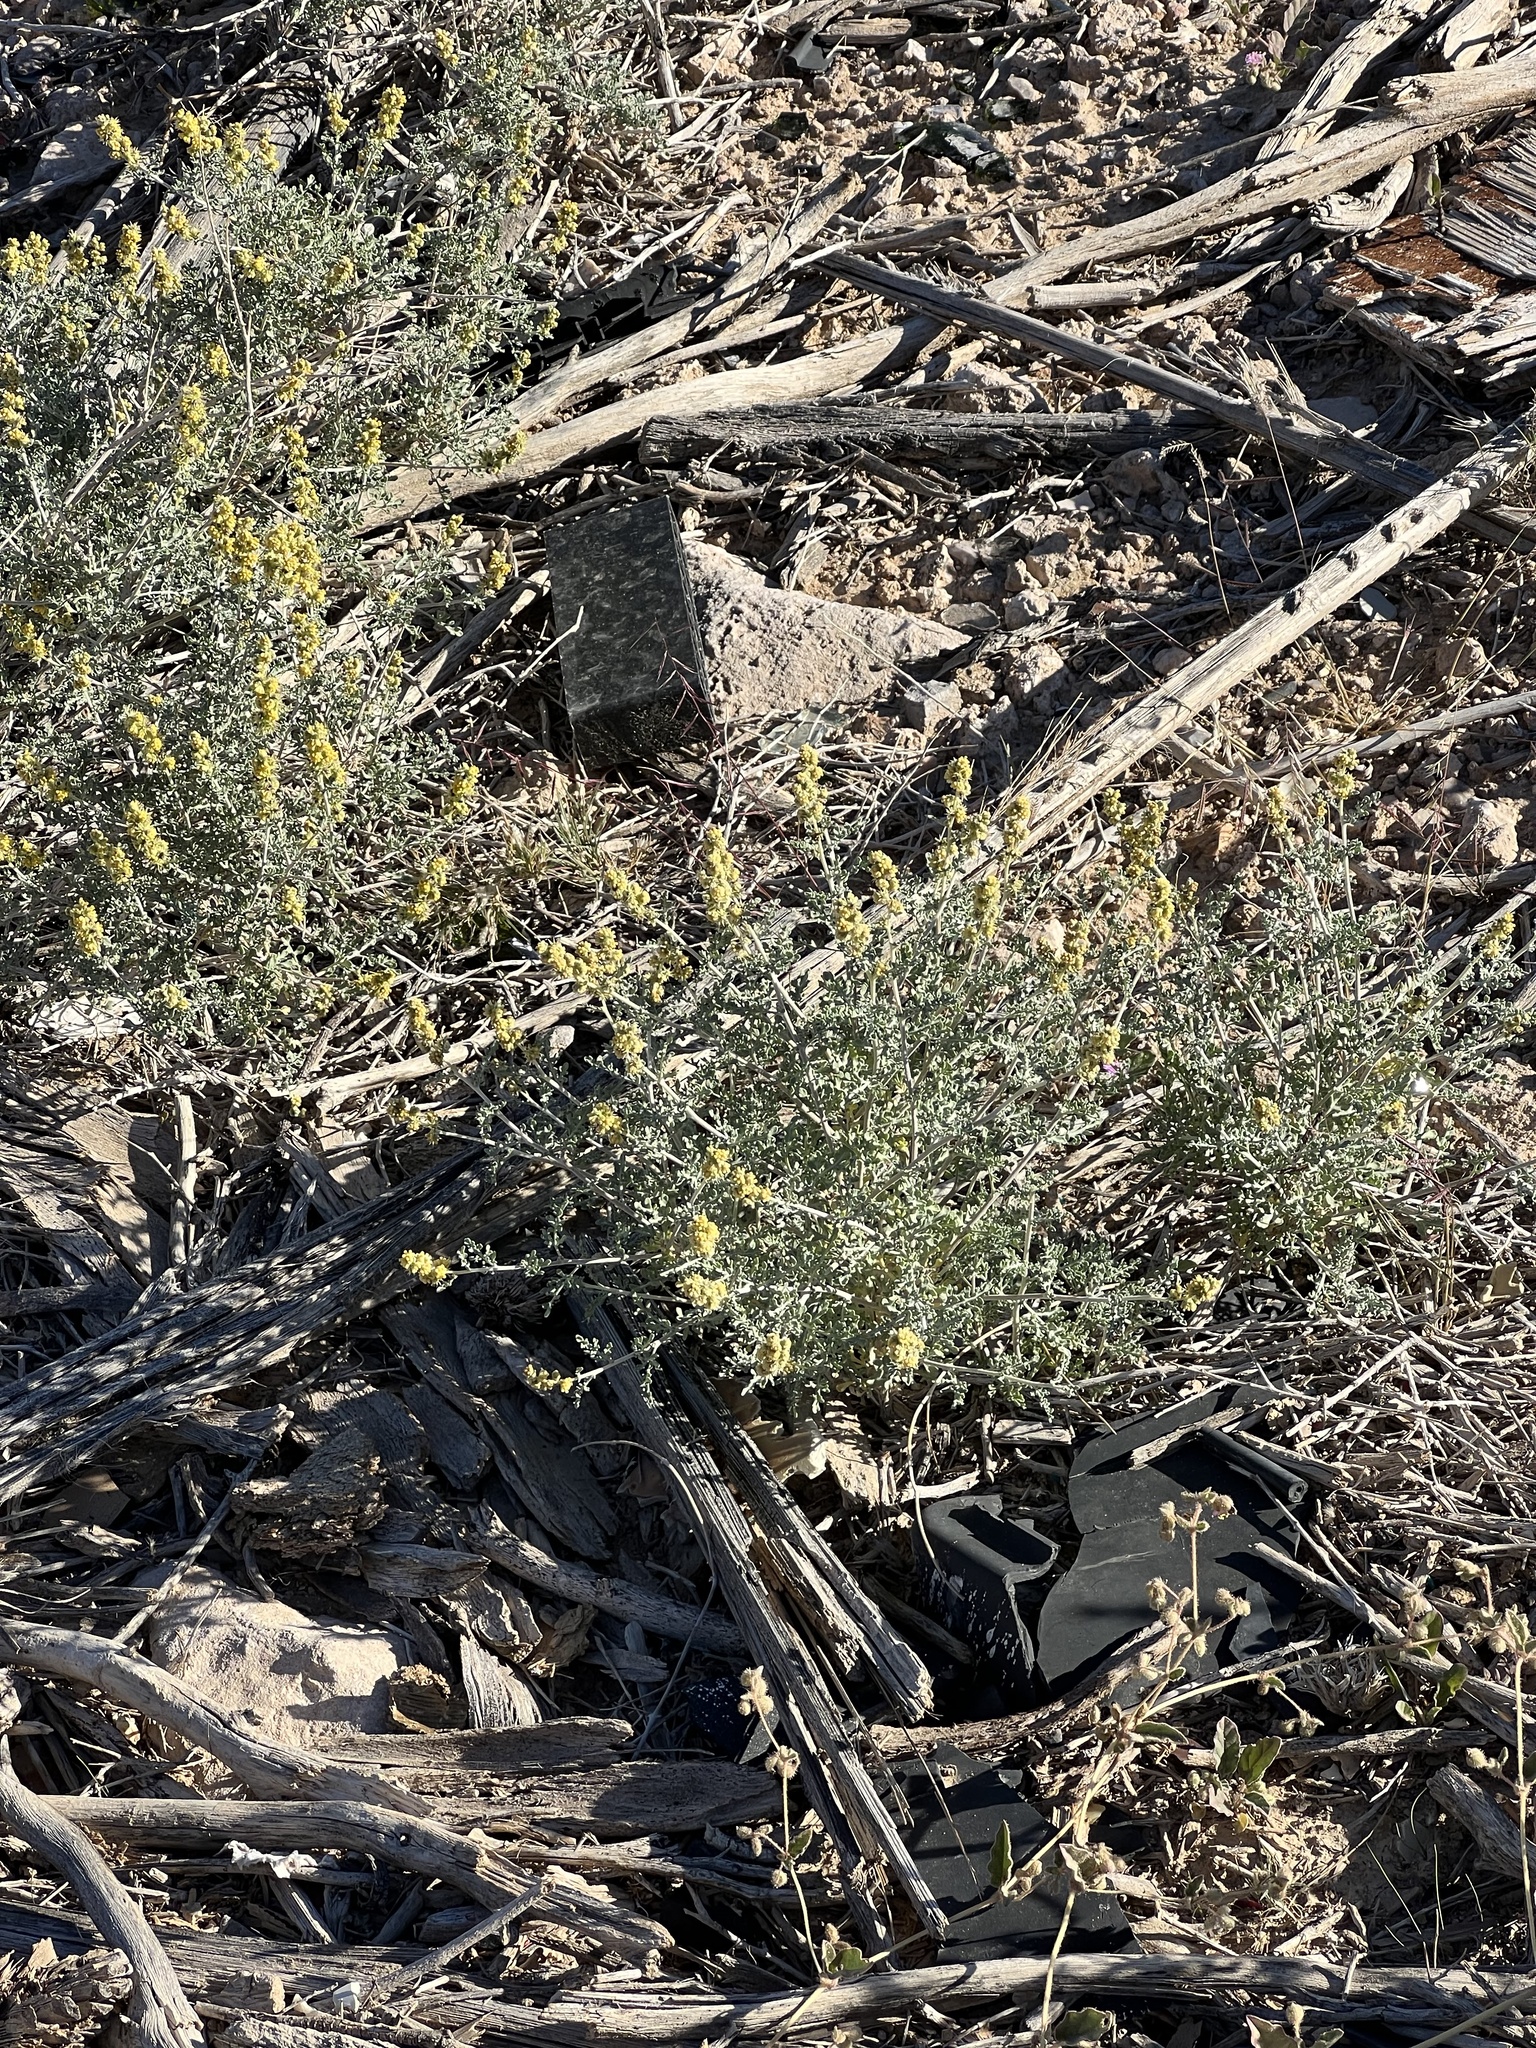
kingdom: Plantae
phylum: Tracheophyta
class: Magnoliopsida
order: Asterales
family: Asteraceae
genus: Ambrosia
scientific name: Ambrosia dumosa
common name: Bur-sage
